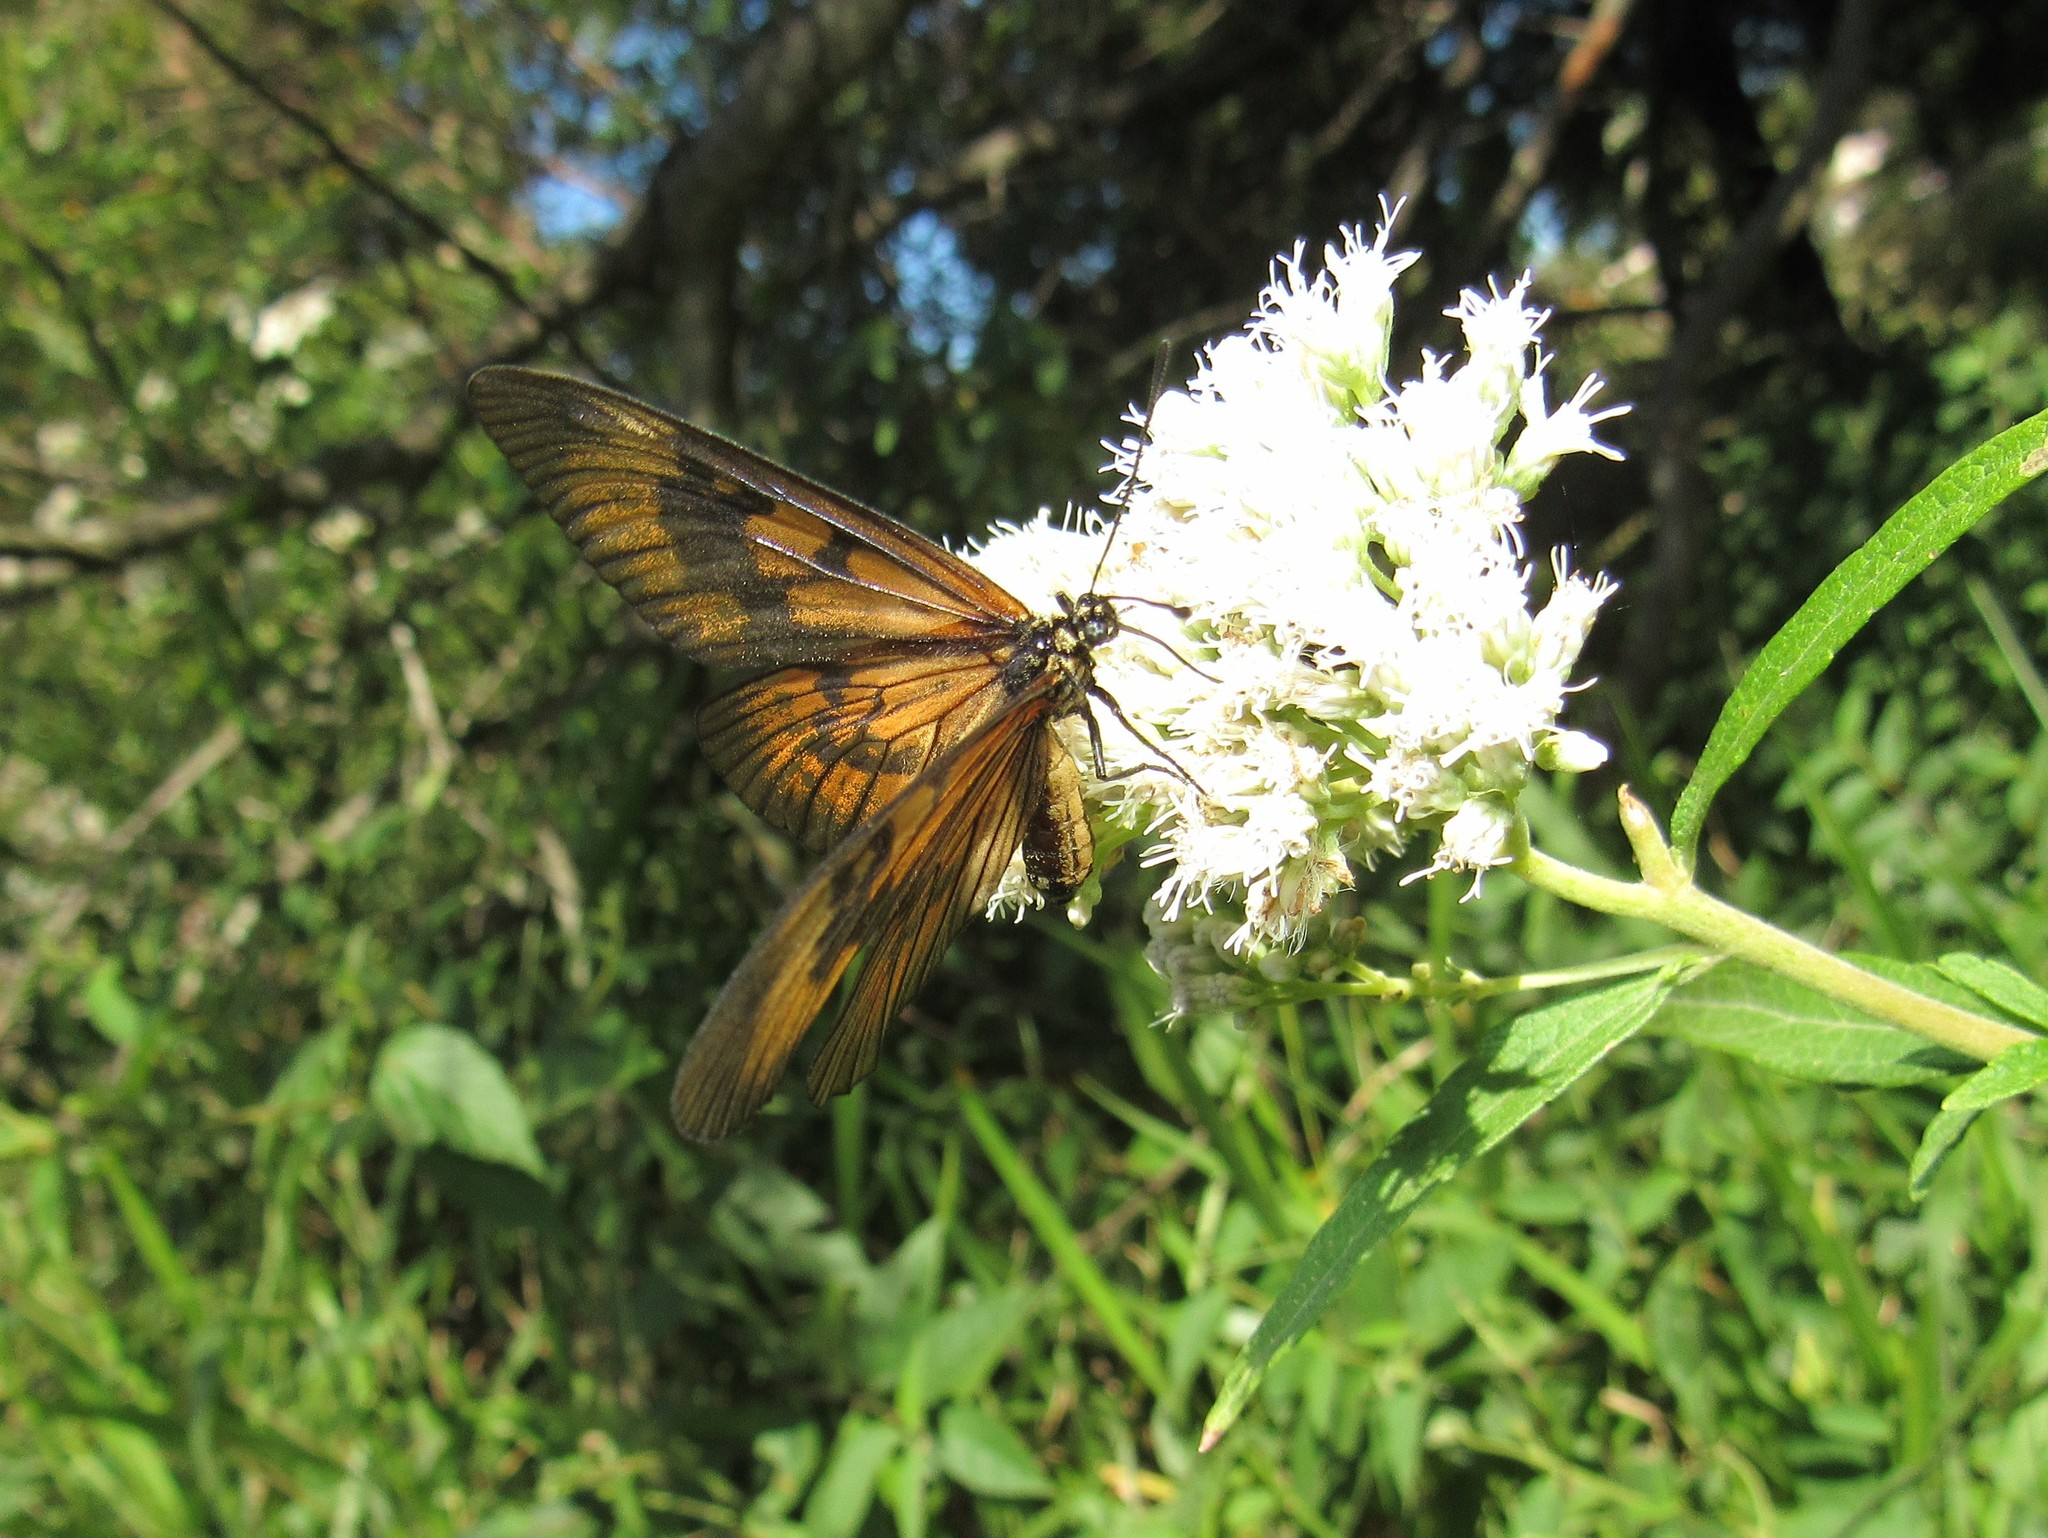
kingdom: Animalia
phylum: Arthropoda
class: Insecta
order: Lepidoptera
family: Nymphalidae
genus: Acraea
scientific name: Acraea momina
